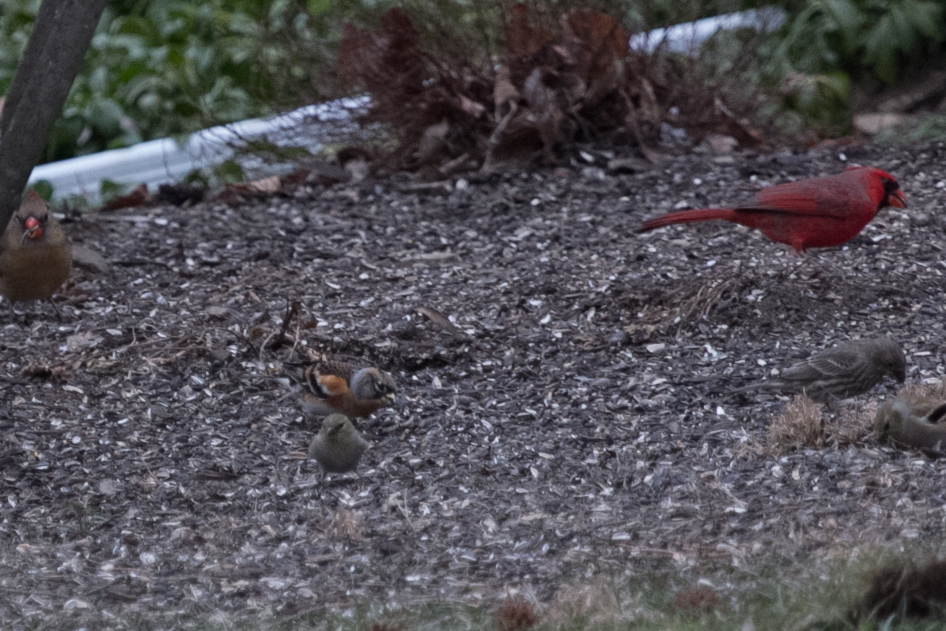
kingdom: Animalia
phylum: Chordata
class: Aves
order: Passeriformes
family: Fringillidae
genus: Fringilla
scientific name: Fringilla montifringilla
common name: Brambling
